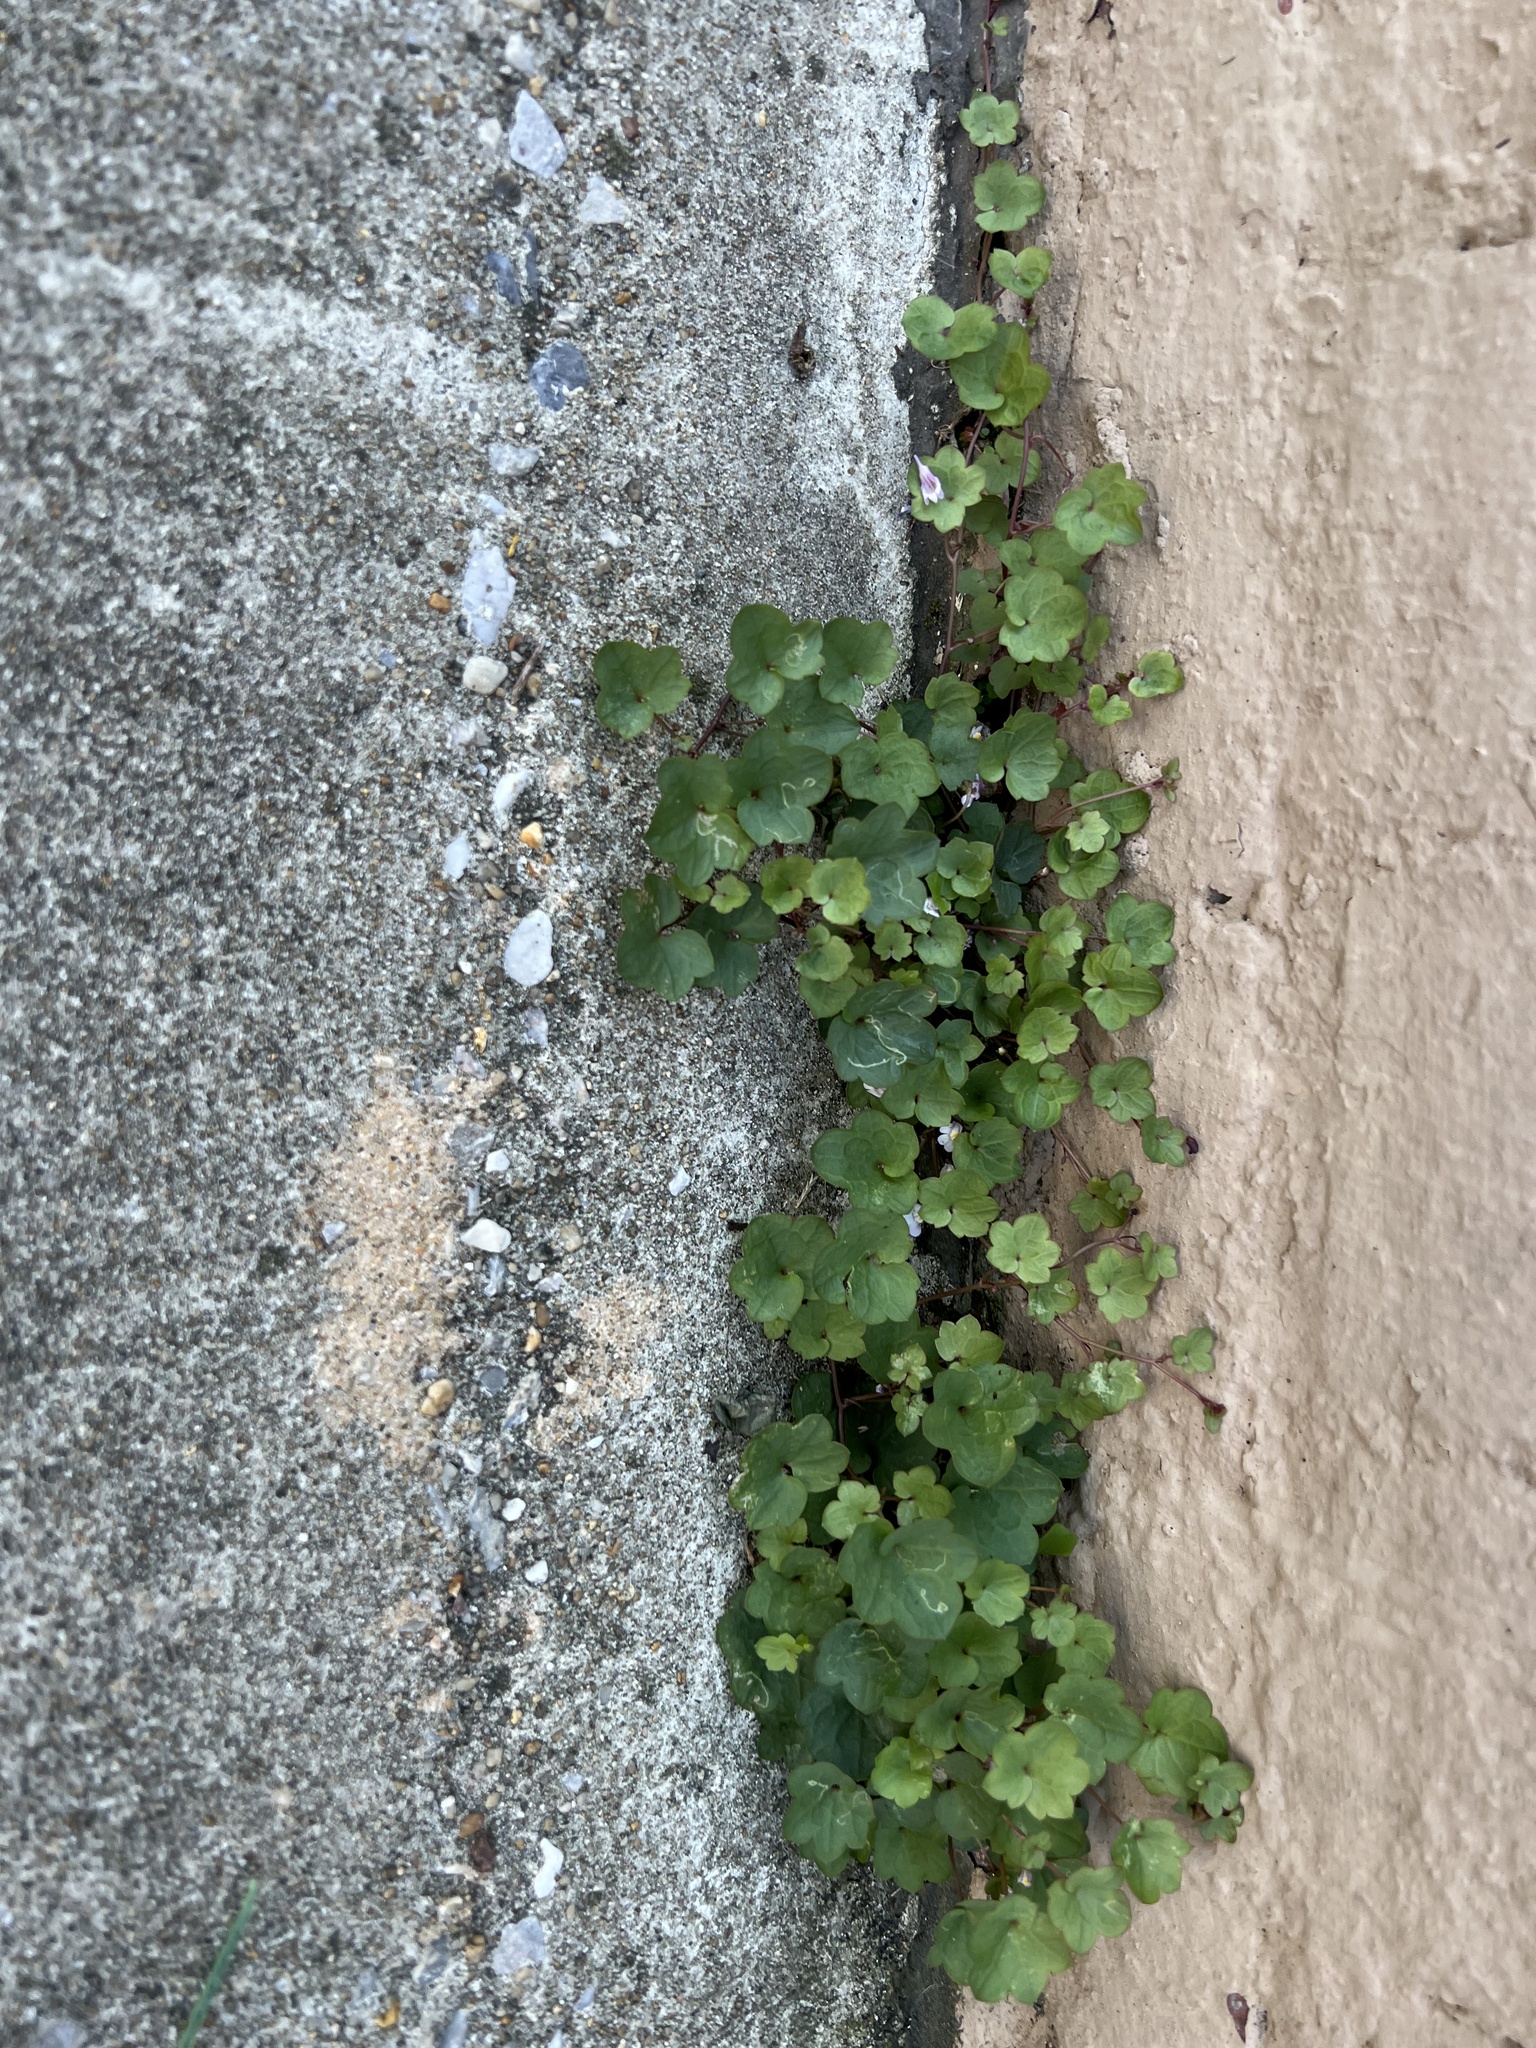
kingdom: Plantae
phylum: Tracheophyta
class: Magnoliopsida
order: Lamiales
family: Plantaginaceae
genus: Cymbalaria
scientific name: Cymbalaria muralis
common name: Ivy-leaved toadflax
